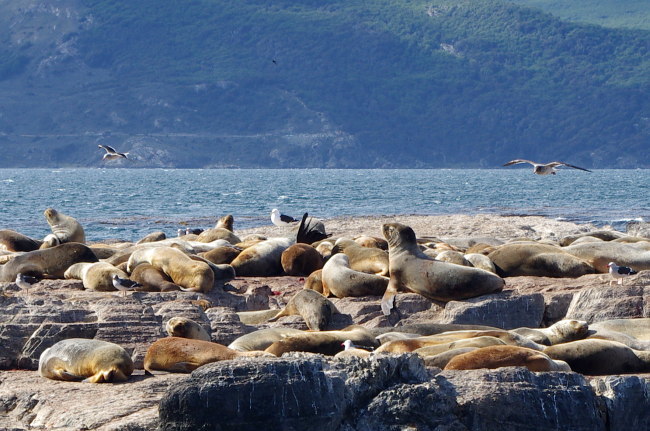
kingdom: Animalia
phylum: Chordata
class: Mammalia
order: Carnivora
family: Otariidae
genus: Otaria
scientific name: Otaria byronia
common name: South american sea lion
